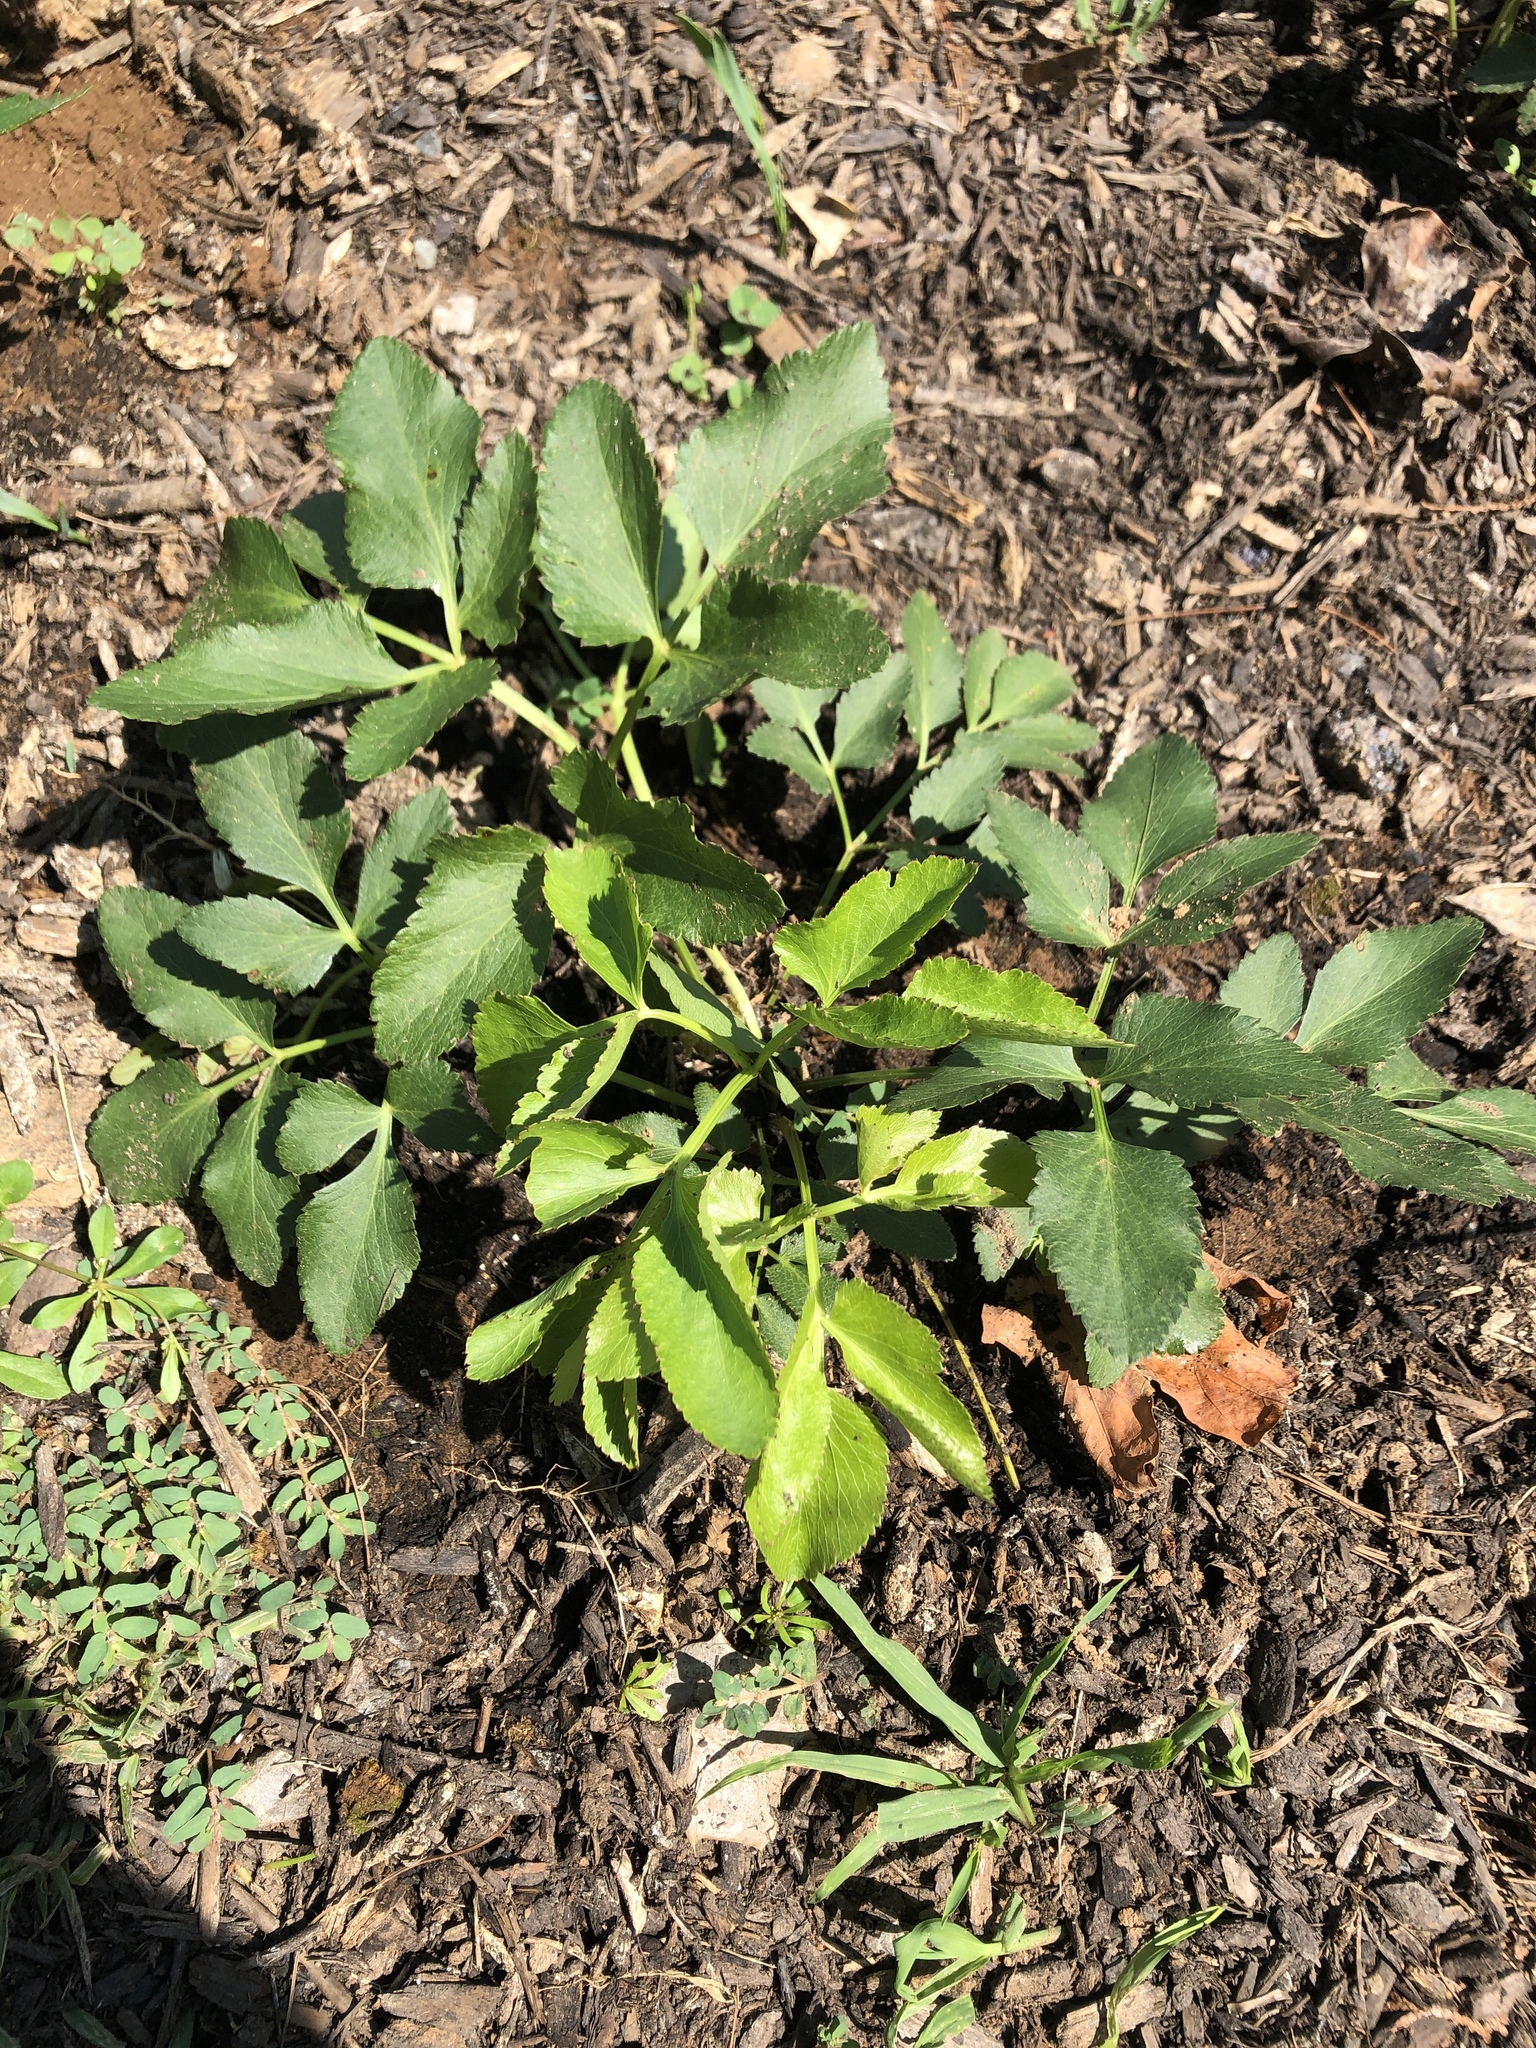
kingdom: Plantae
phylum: Tracheophyta
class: Magnoliopsida
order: Apiales
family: Apiaceae
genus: Zizia
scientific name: Zizia aurea
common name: Golden alexanders
